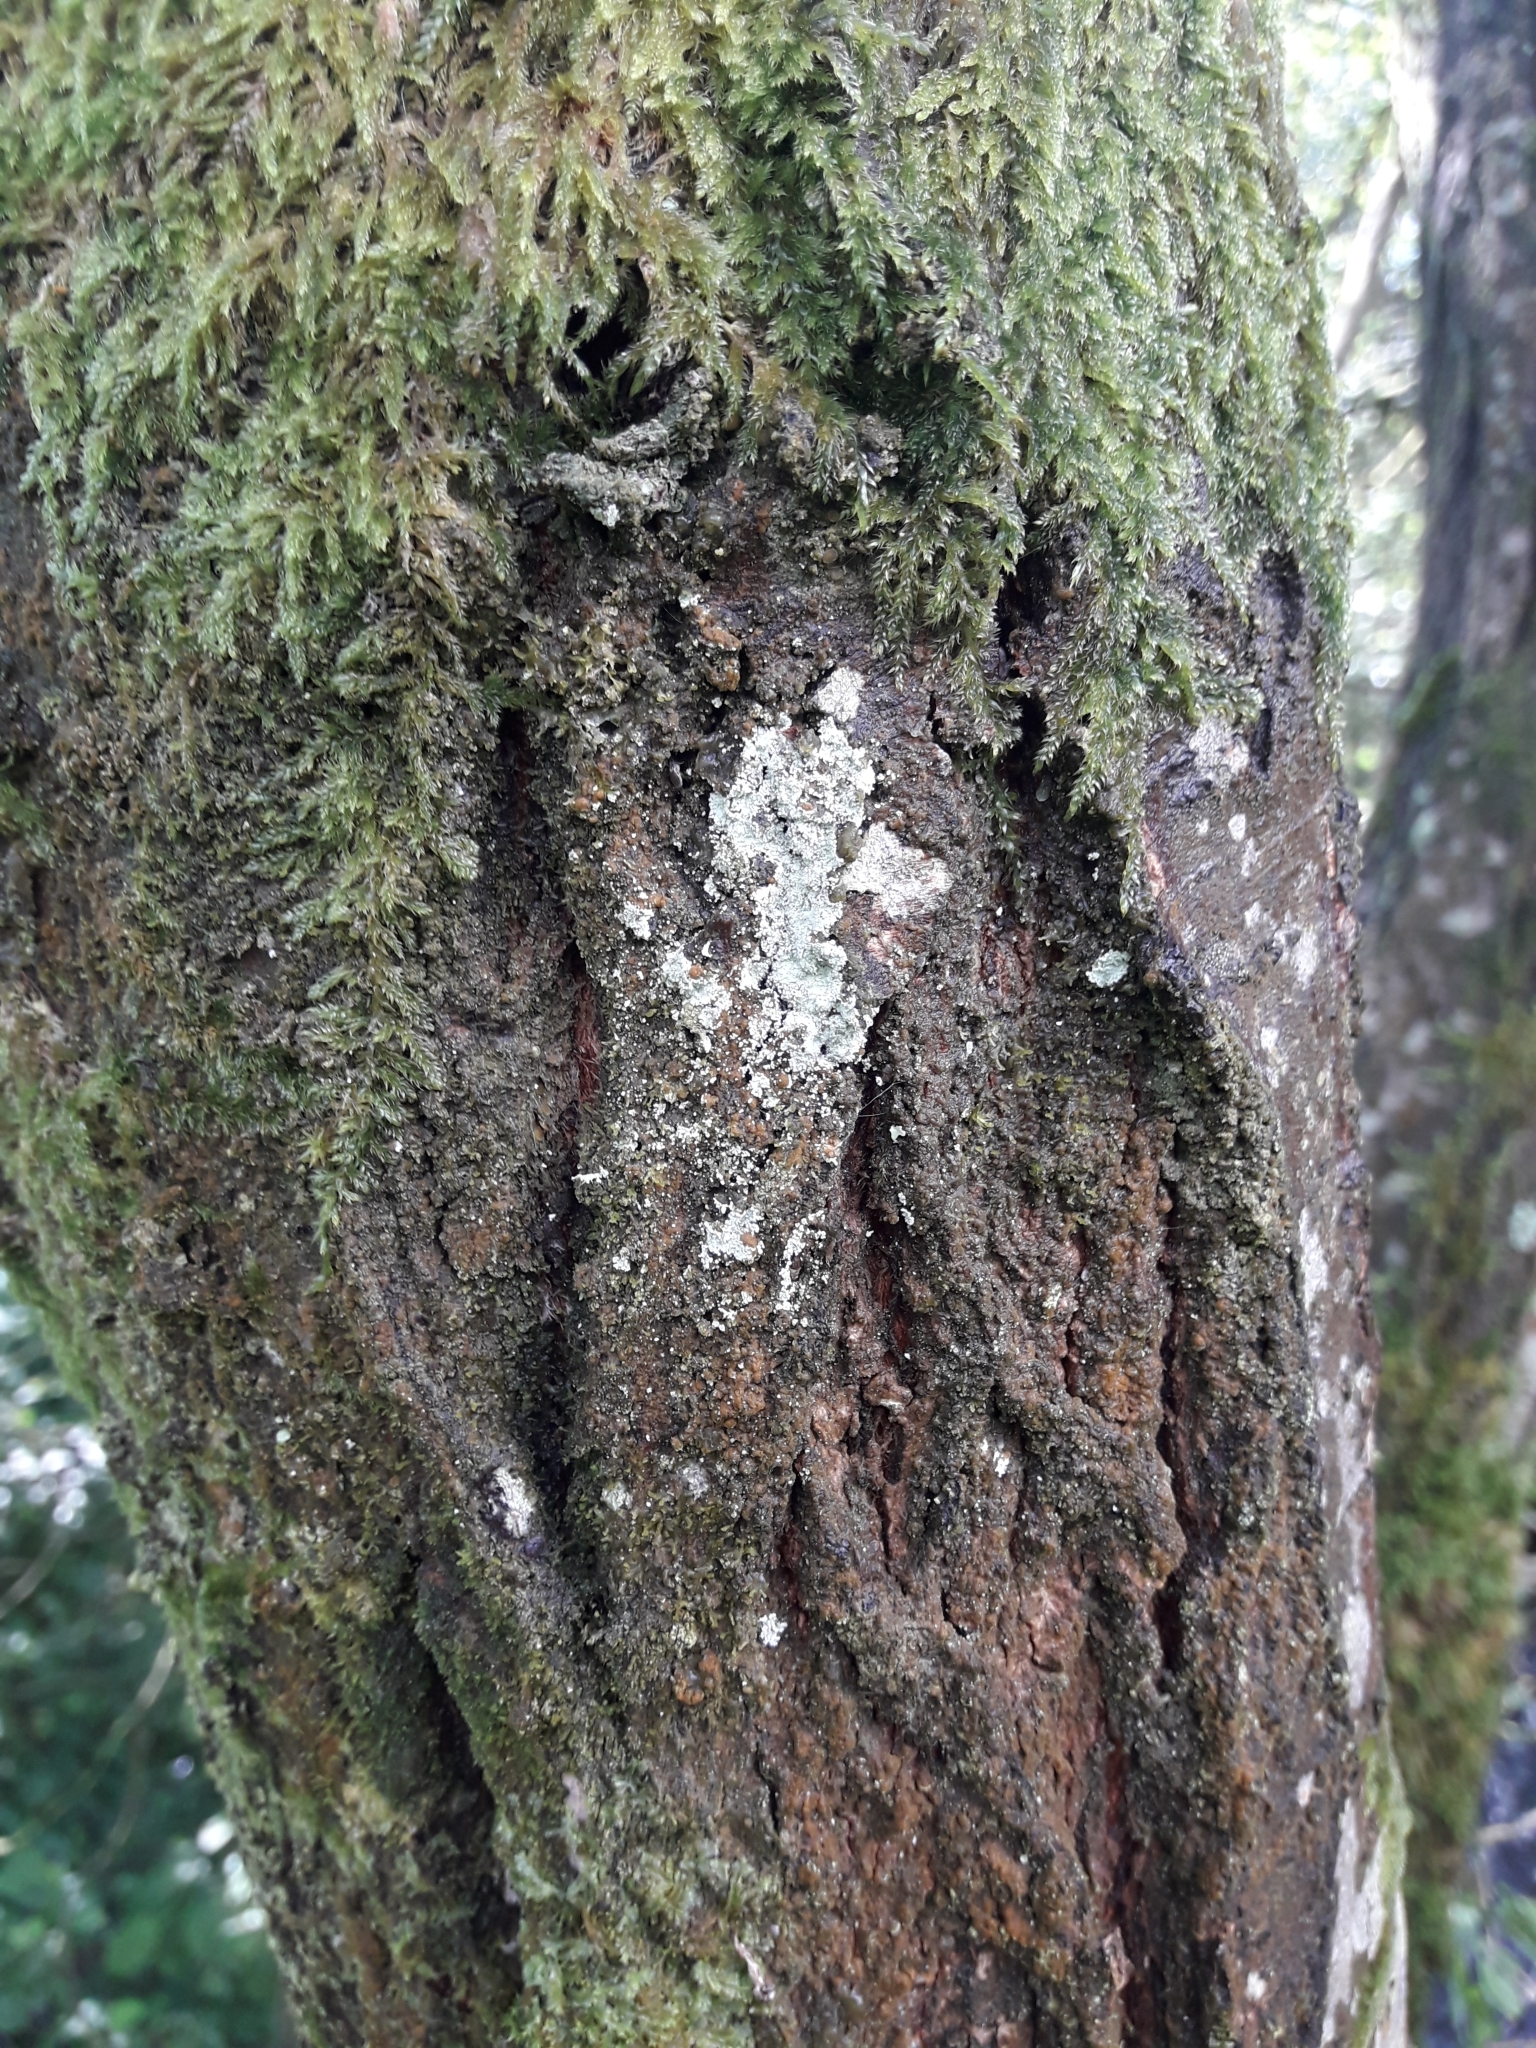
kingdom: Fungi
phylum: Ascomycota
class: Lecanoromycetes
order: Lecanorales
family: Stereocaulaceae
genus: Lepraria
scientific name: Lepraria
